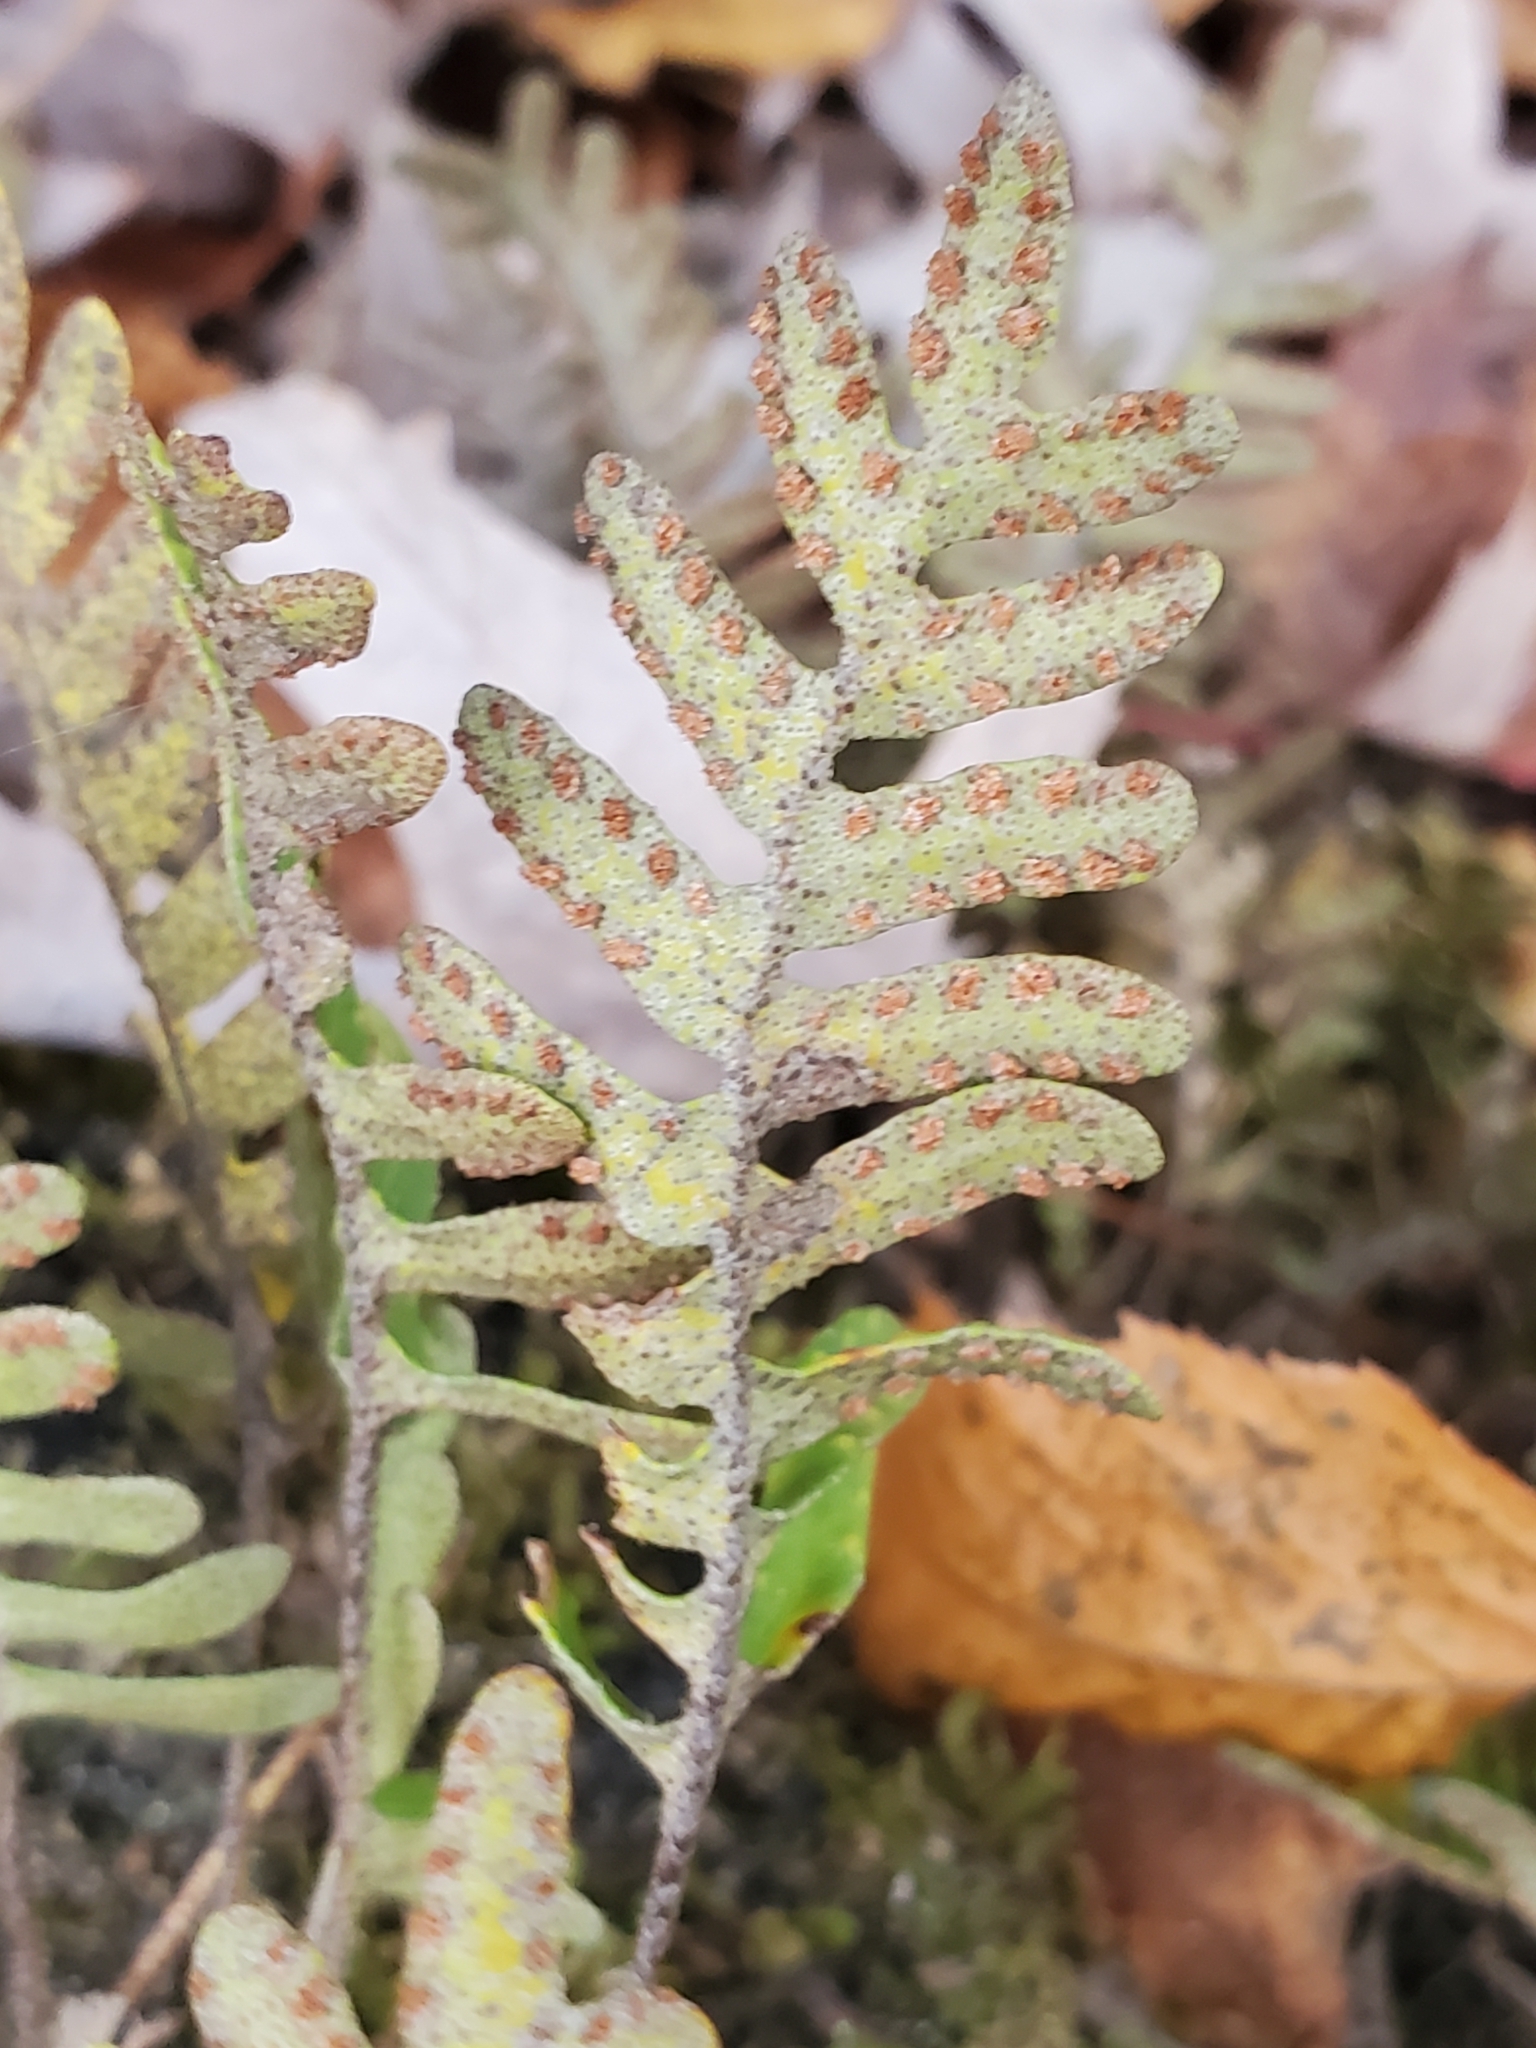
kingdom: Plantae
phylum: Tracheophyta
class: Polypodiopsida
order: Polypodiales
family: Polypodiaceae
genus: Pleopeltis
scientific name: Pleopeltis michauxiana
